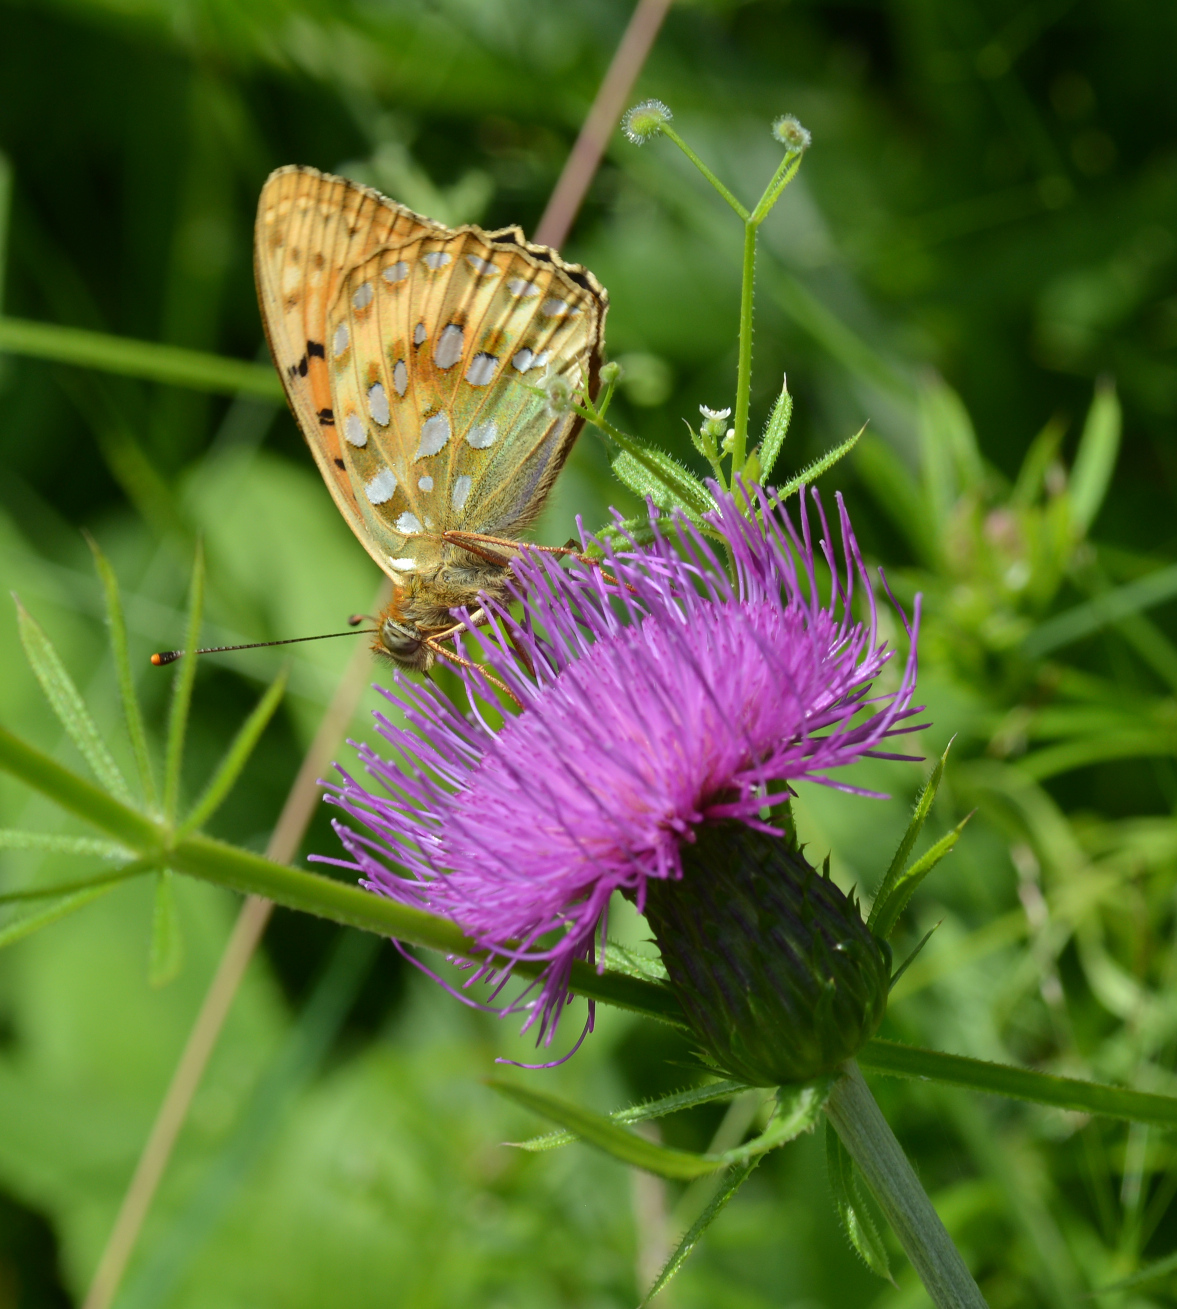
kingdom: Animalia
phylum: Arthropoda
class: Insecta
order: Lepidoptera
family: Nymphalidae
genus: Speyeria
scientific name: Speyeria aglaja
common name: Dark green fritillary
